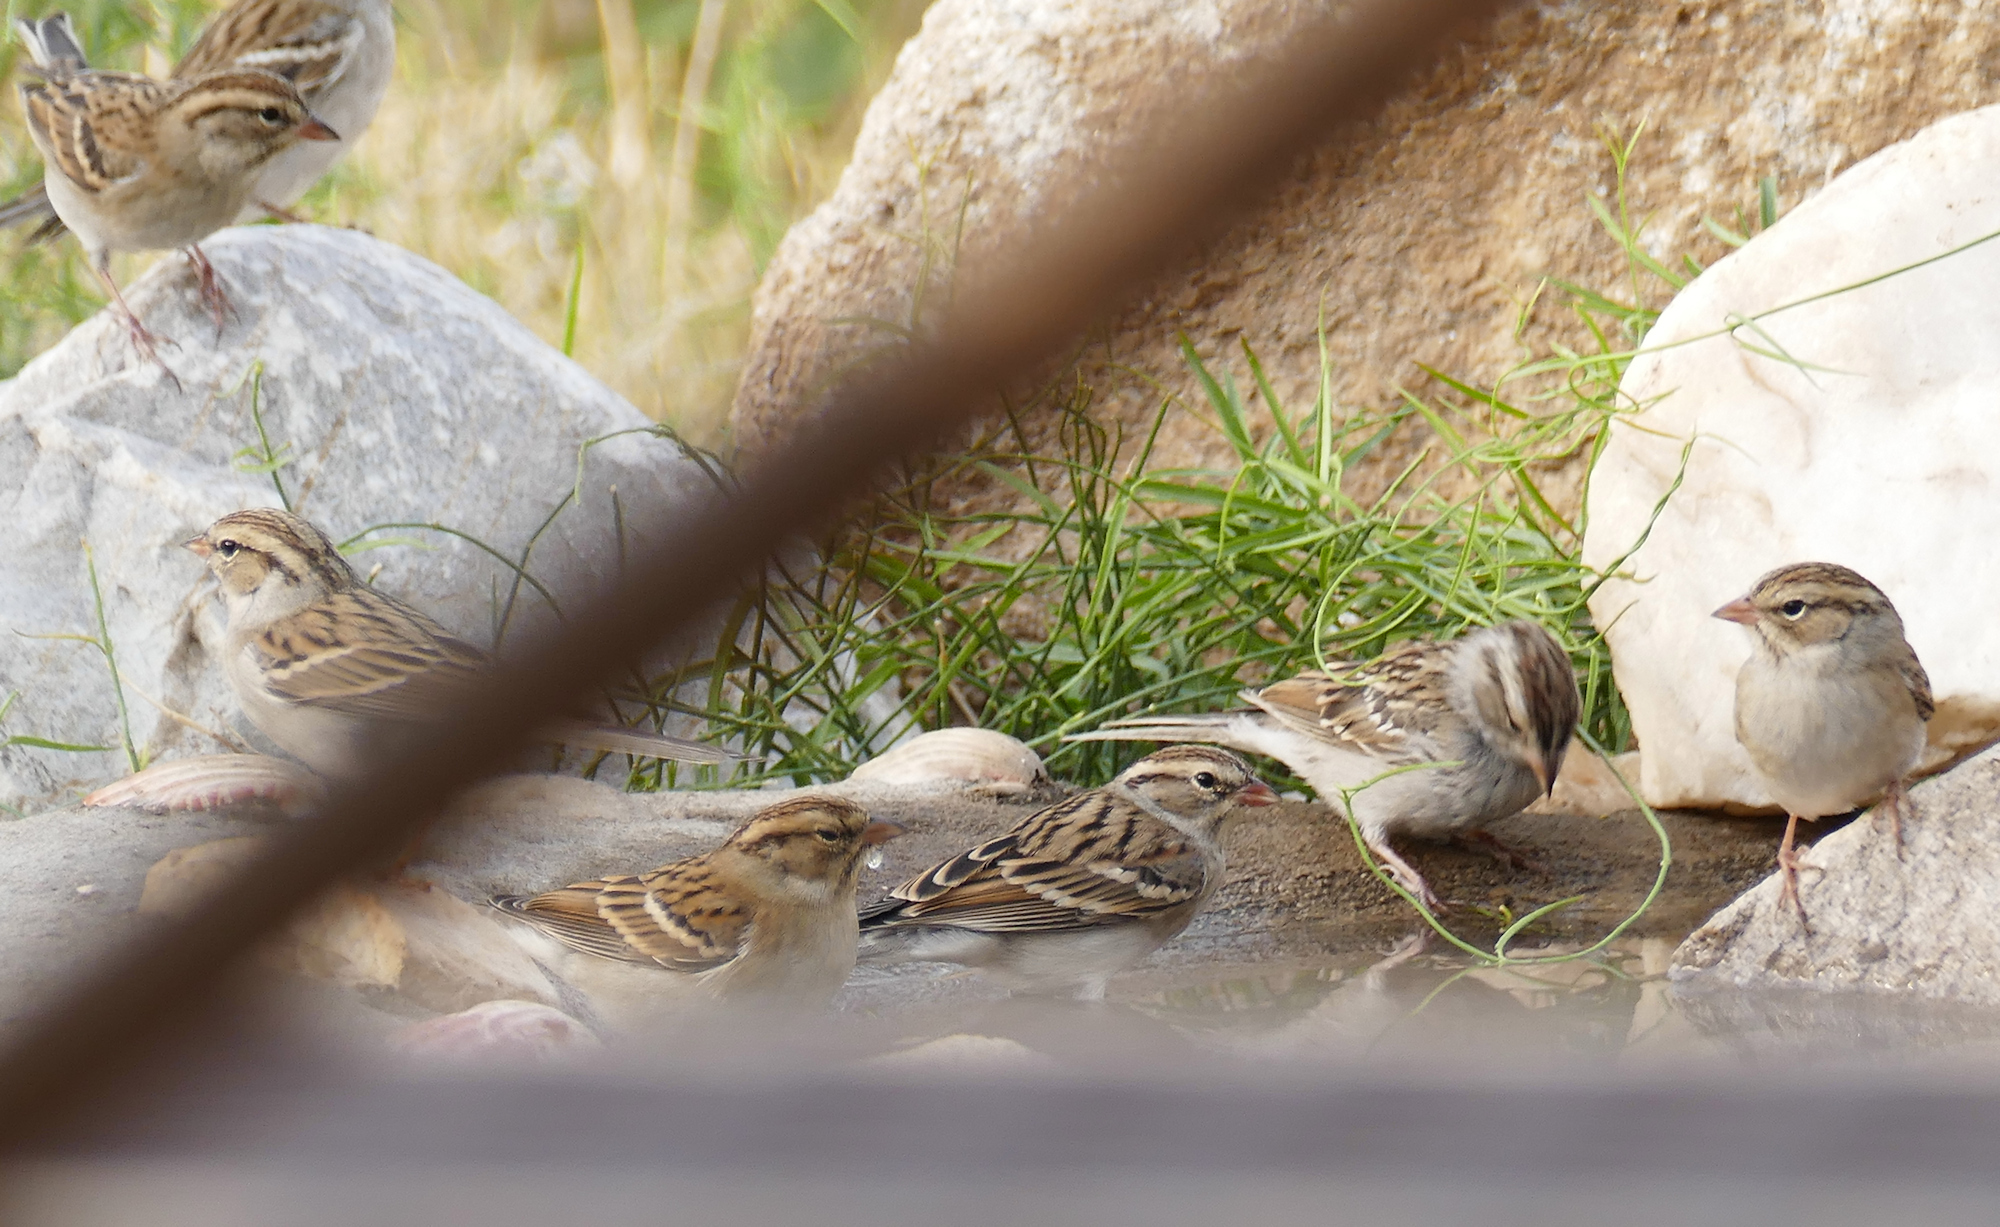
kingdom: Animalia
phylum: Chordata
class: Aves
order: Passeriformes
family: Passerellidae
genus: Spizella
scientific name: Spizella passerina
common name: Chipping sparrow
